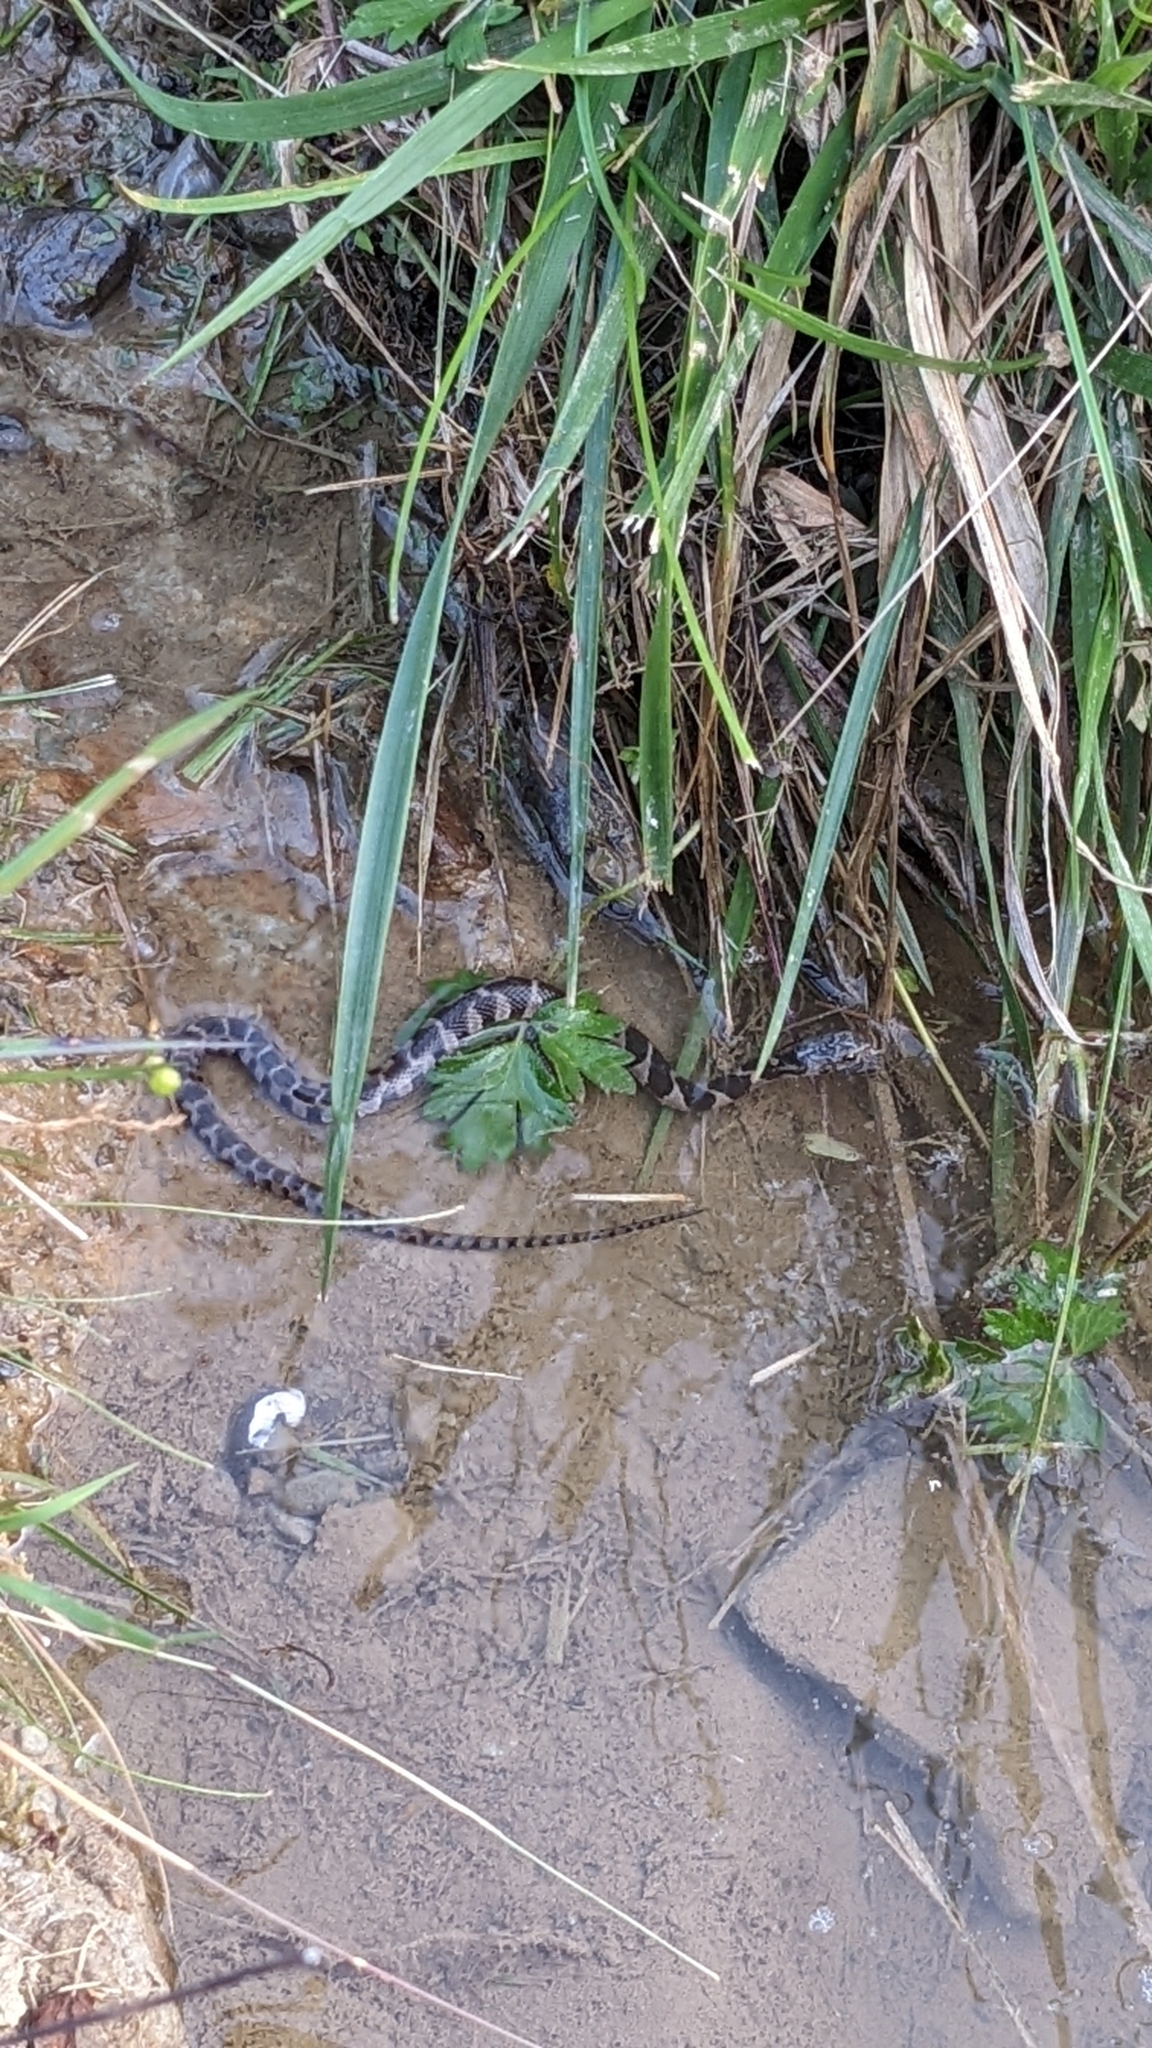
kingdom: Animalia
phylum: Chordata
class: Squamata
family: Colubridae
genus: Nerodia
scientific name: Nerodia sipedon
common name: Northern water snake
